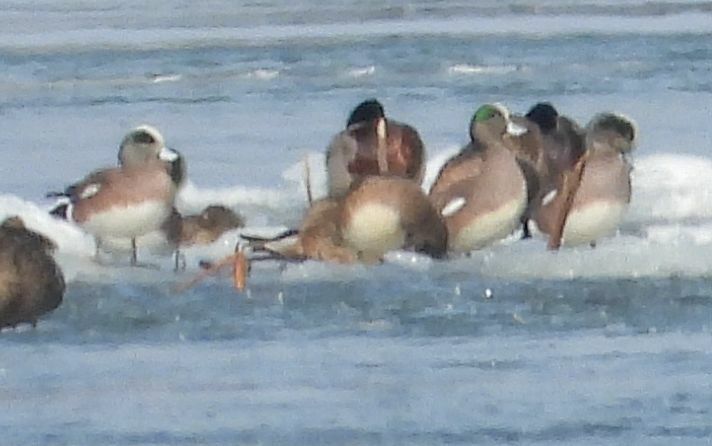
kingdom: Animalia
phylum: Chordata
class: Aves
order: Anseriformes
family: Anatidae
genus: Mareca
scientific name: Mareca americana
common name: American wigeon
